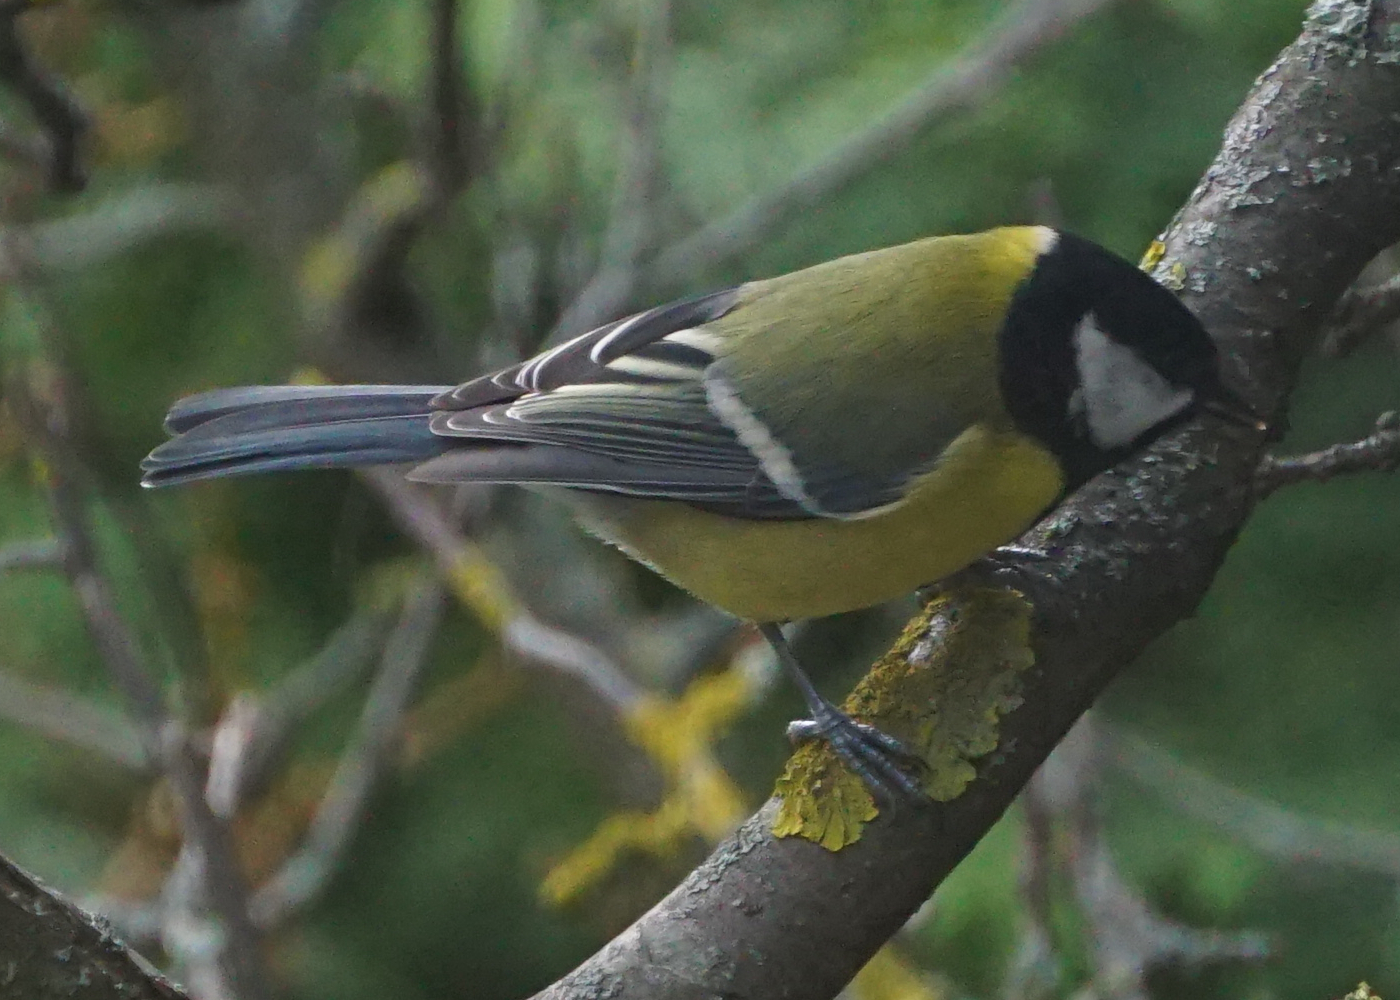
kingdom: Animalia
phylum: Chordata
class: Aves
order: Passeriformes
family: Paridae
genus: Parus
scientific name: Parus major
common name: Great tit
